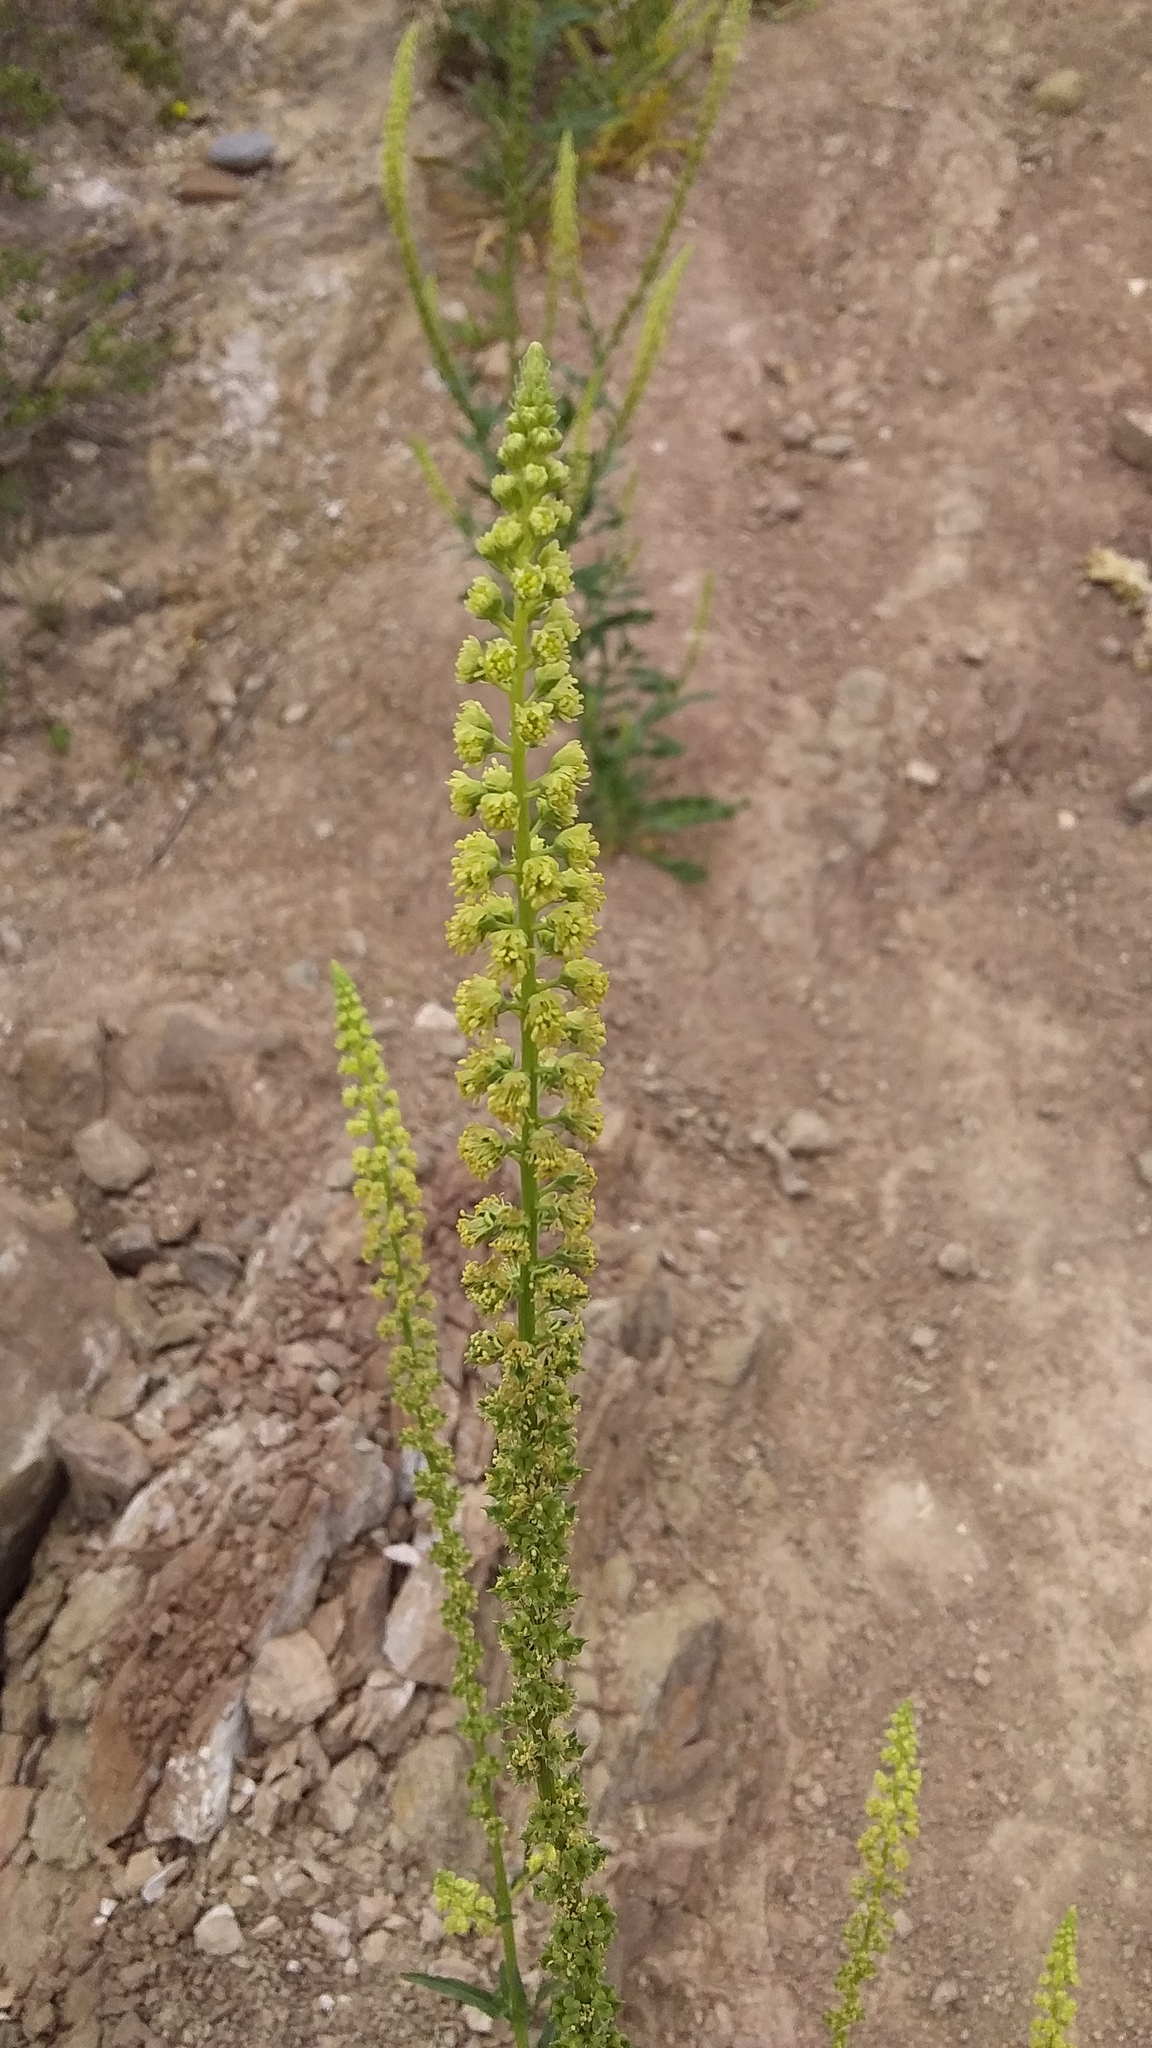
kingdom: Plantae
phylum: Tracheophyta
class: Magnoliopsida
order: Brassicales
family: Resedaceae
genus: Reseda
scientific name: Reseda luteola
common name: Weld
